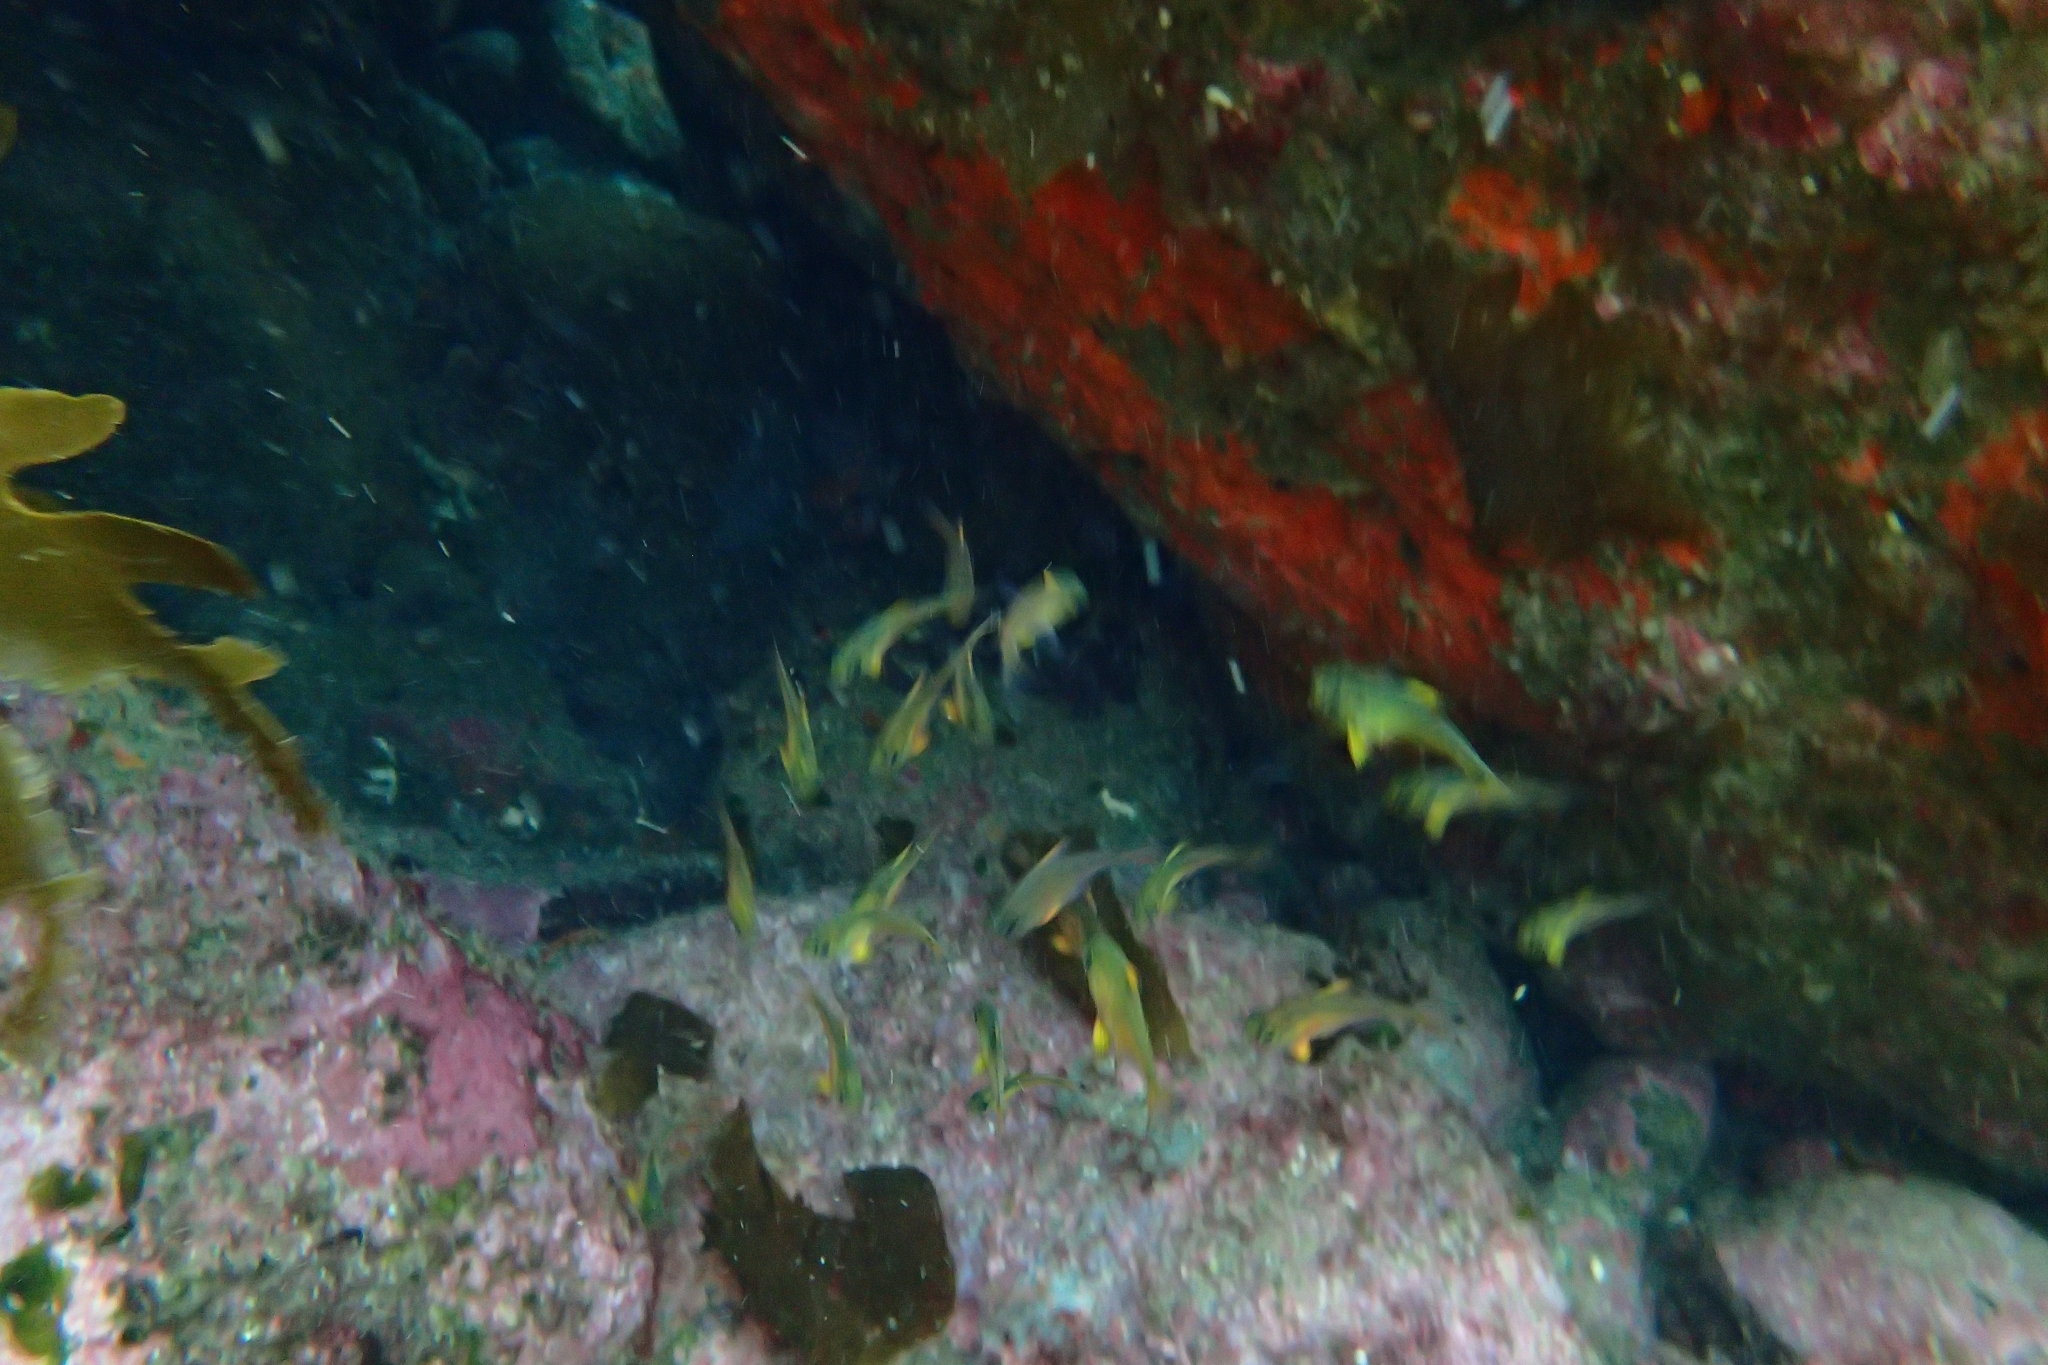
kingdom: Animalia
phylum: Chordata
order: Perciformes
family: Pempheridae
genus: Pempheris
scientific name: Pempheris adspersa
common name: Bigeye
